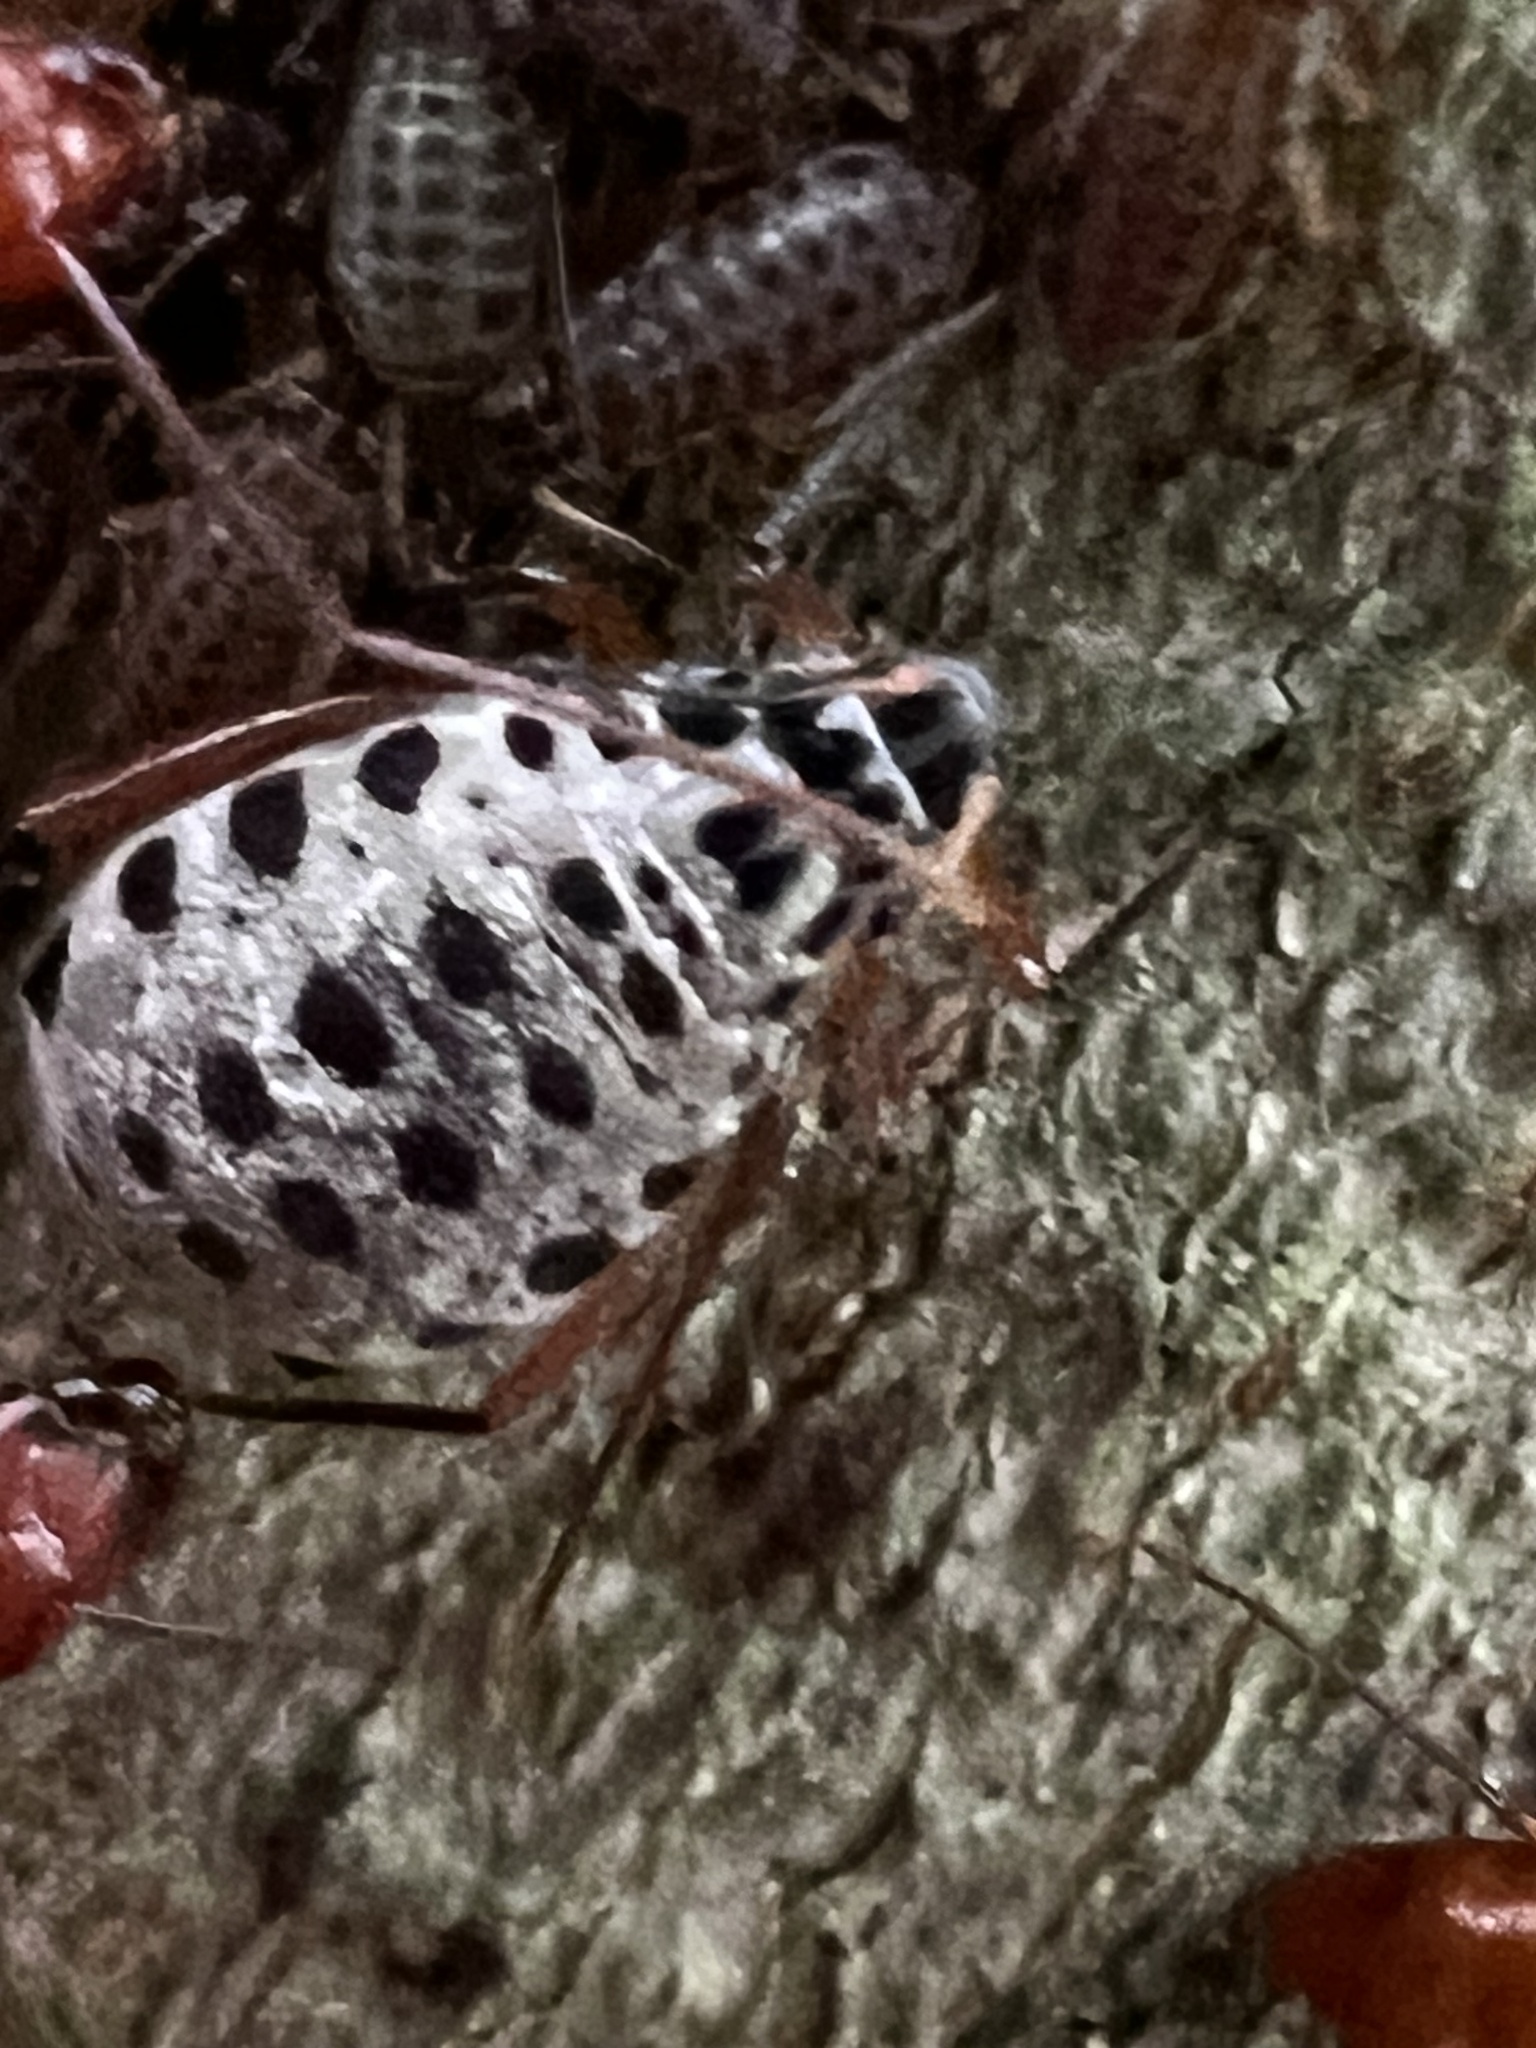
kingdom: Animalia
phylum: Arthropoda
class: Insecta
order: Hemiptera
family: Aphididae
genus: Longistigma
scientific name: Longistigma caryae
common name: Giant bark aphid
